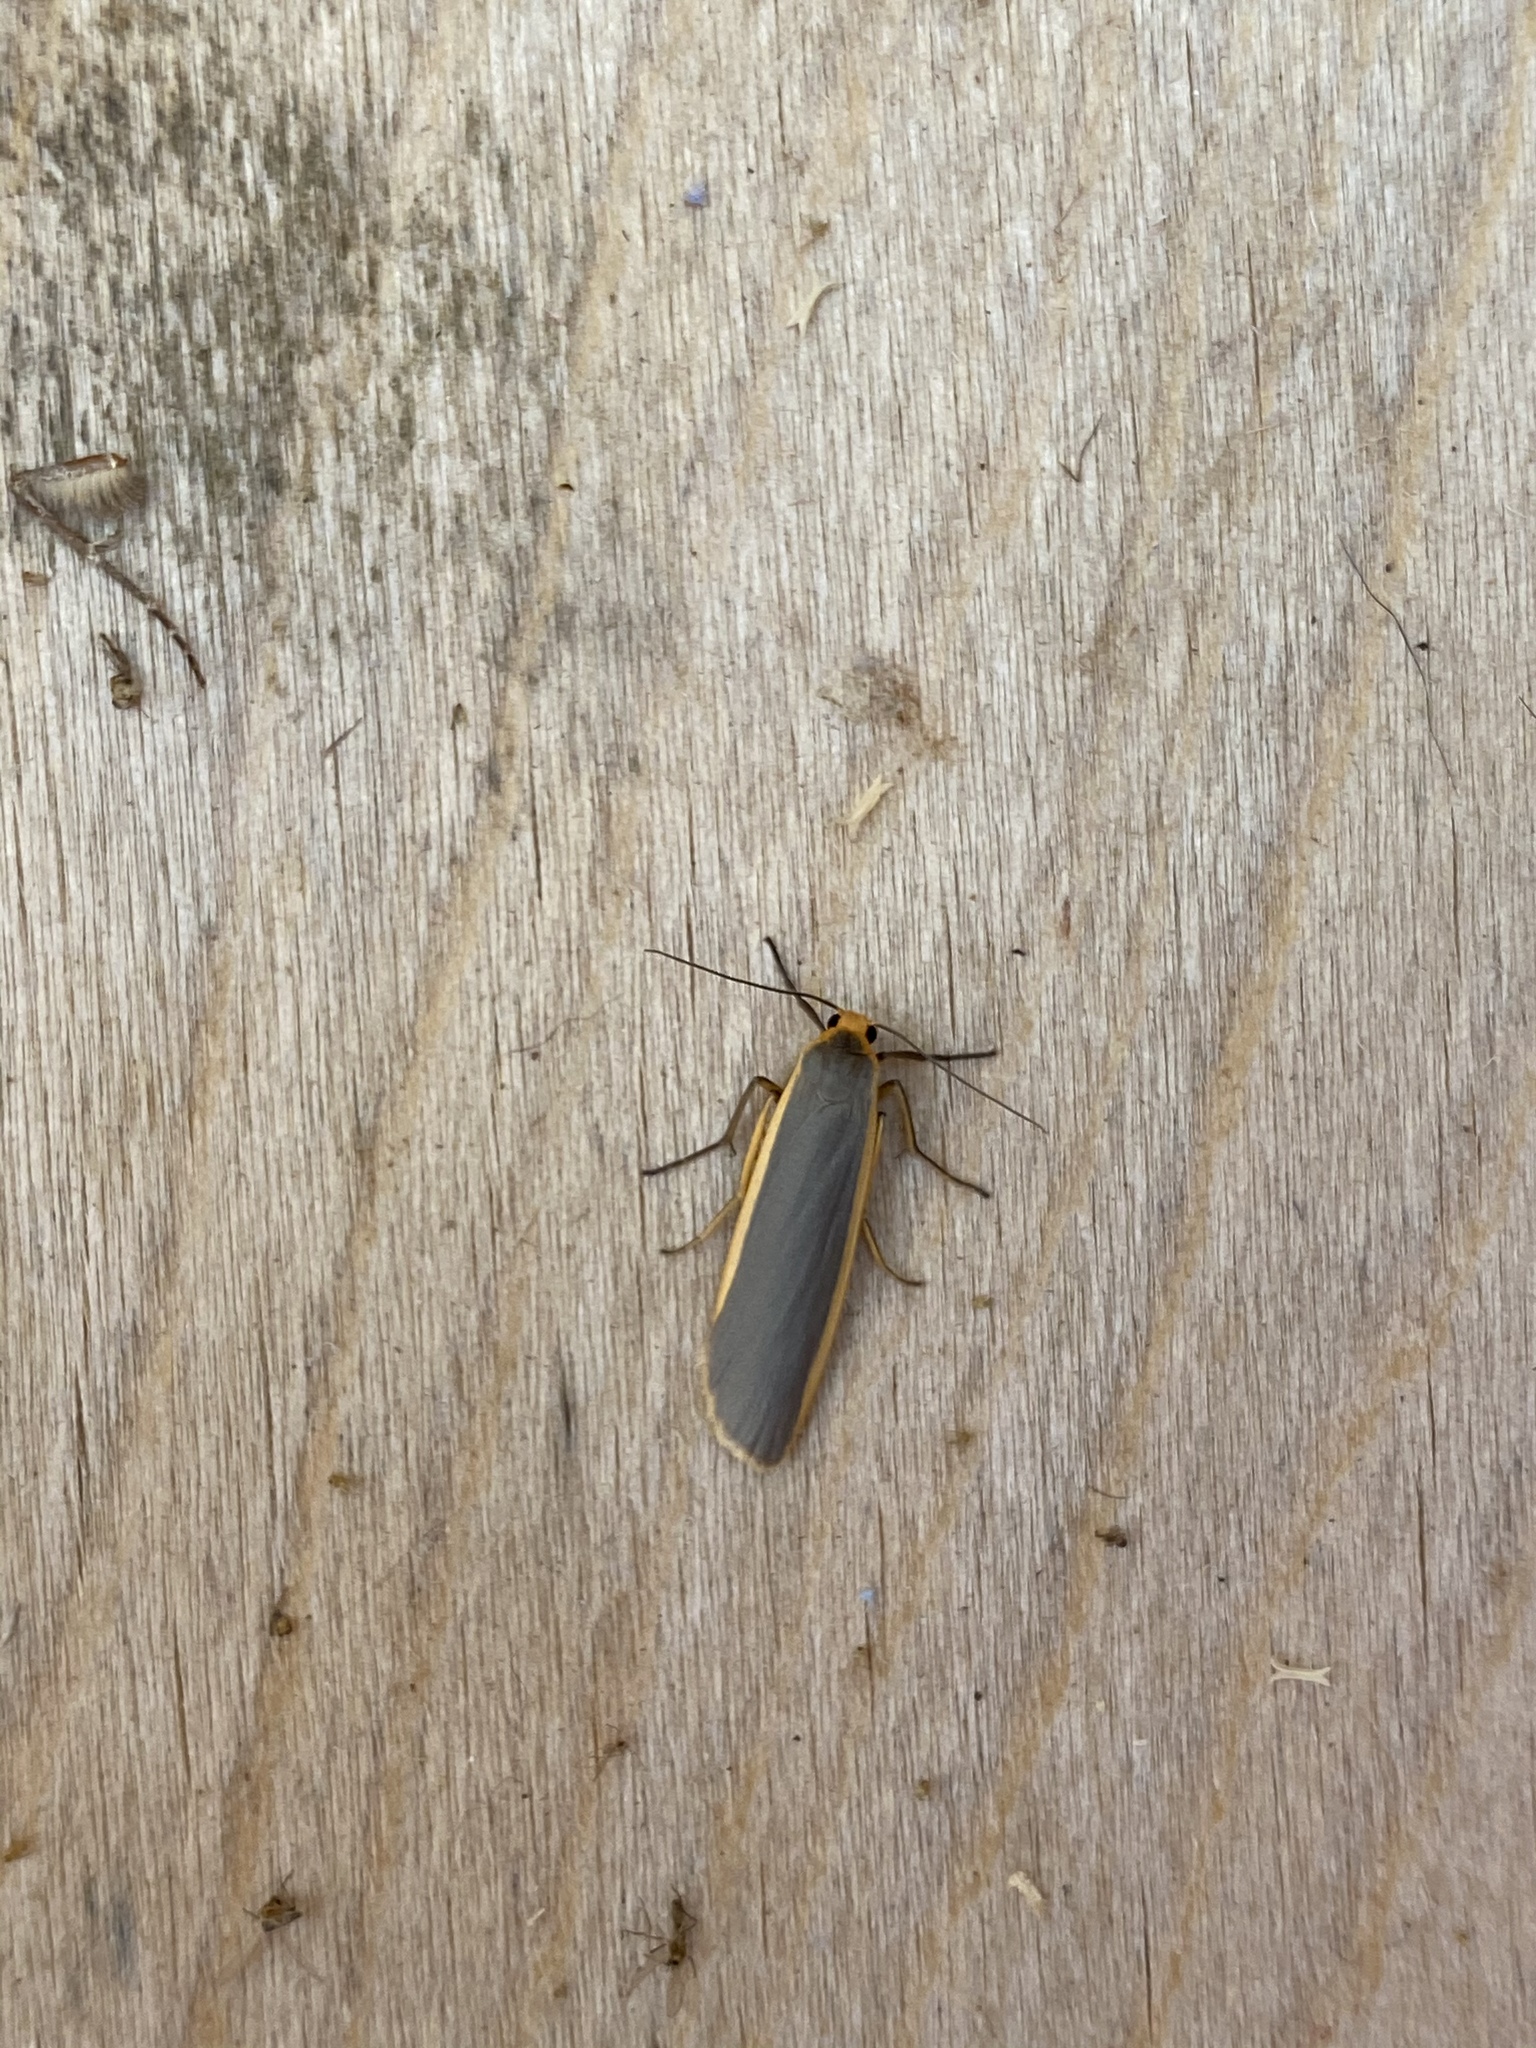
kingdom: Animalia
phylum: Arthropoda
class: Insecta
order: Lepidoptera
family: Erebidae
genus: Nyea
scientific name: Nyea lurideola
